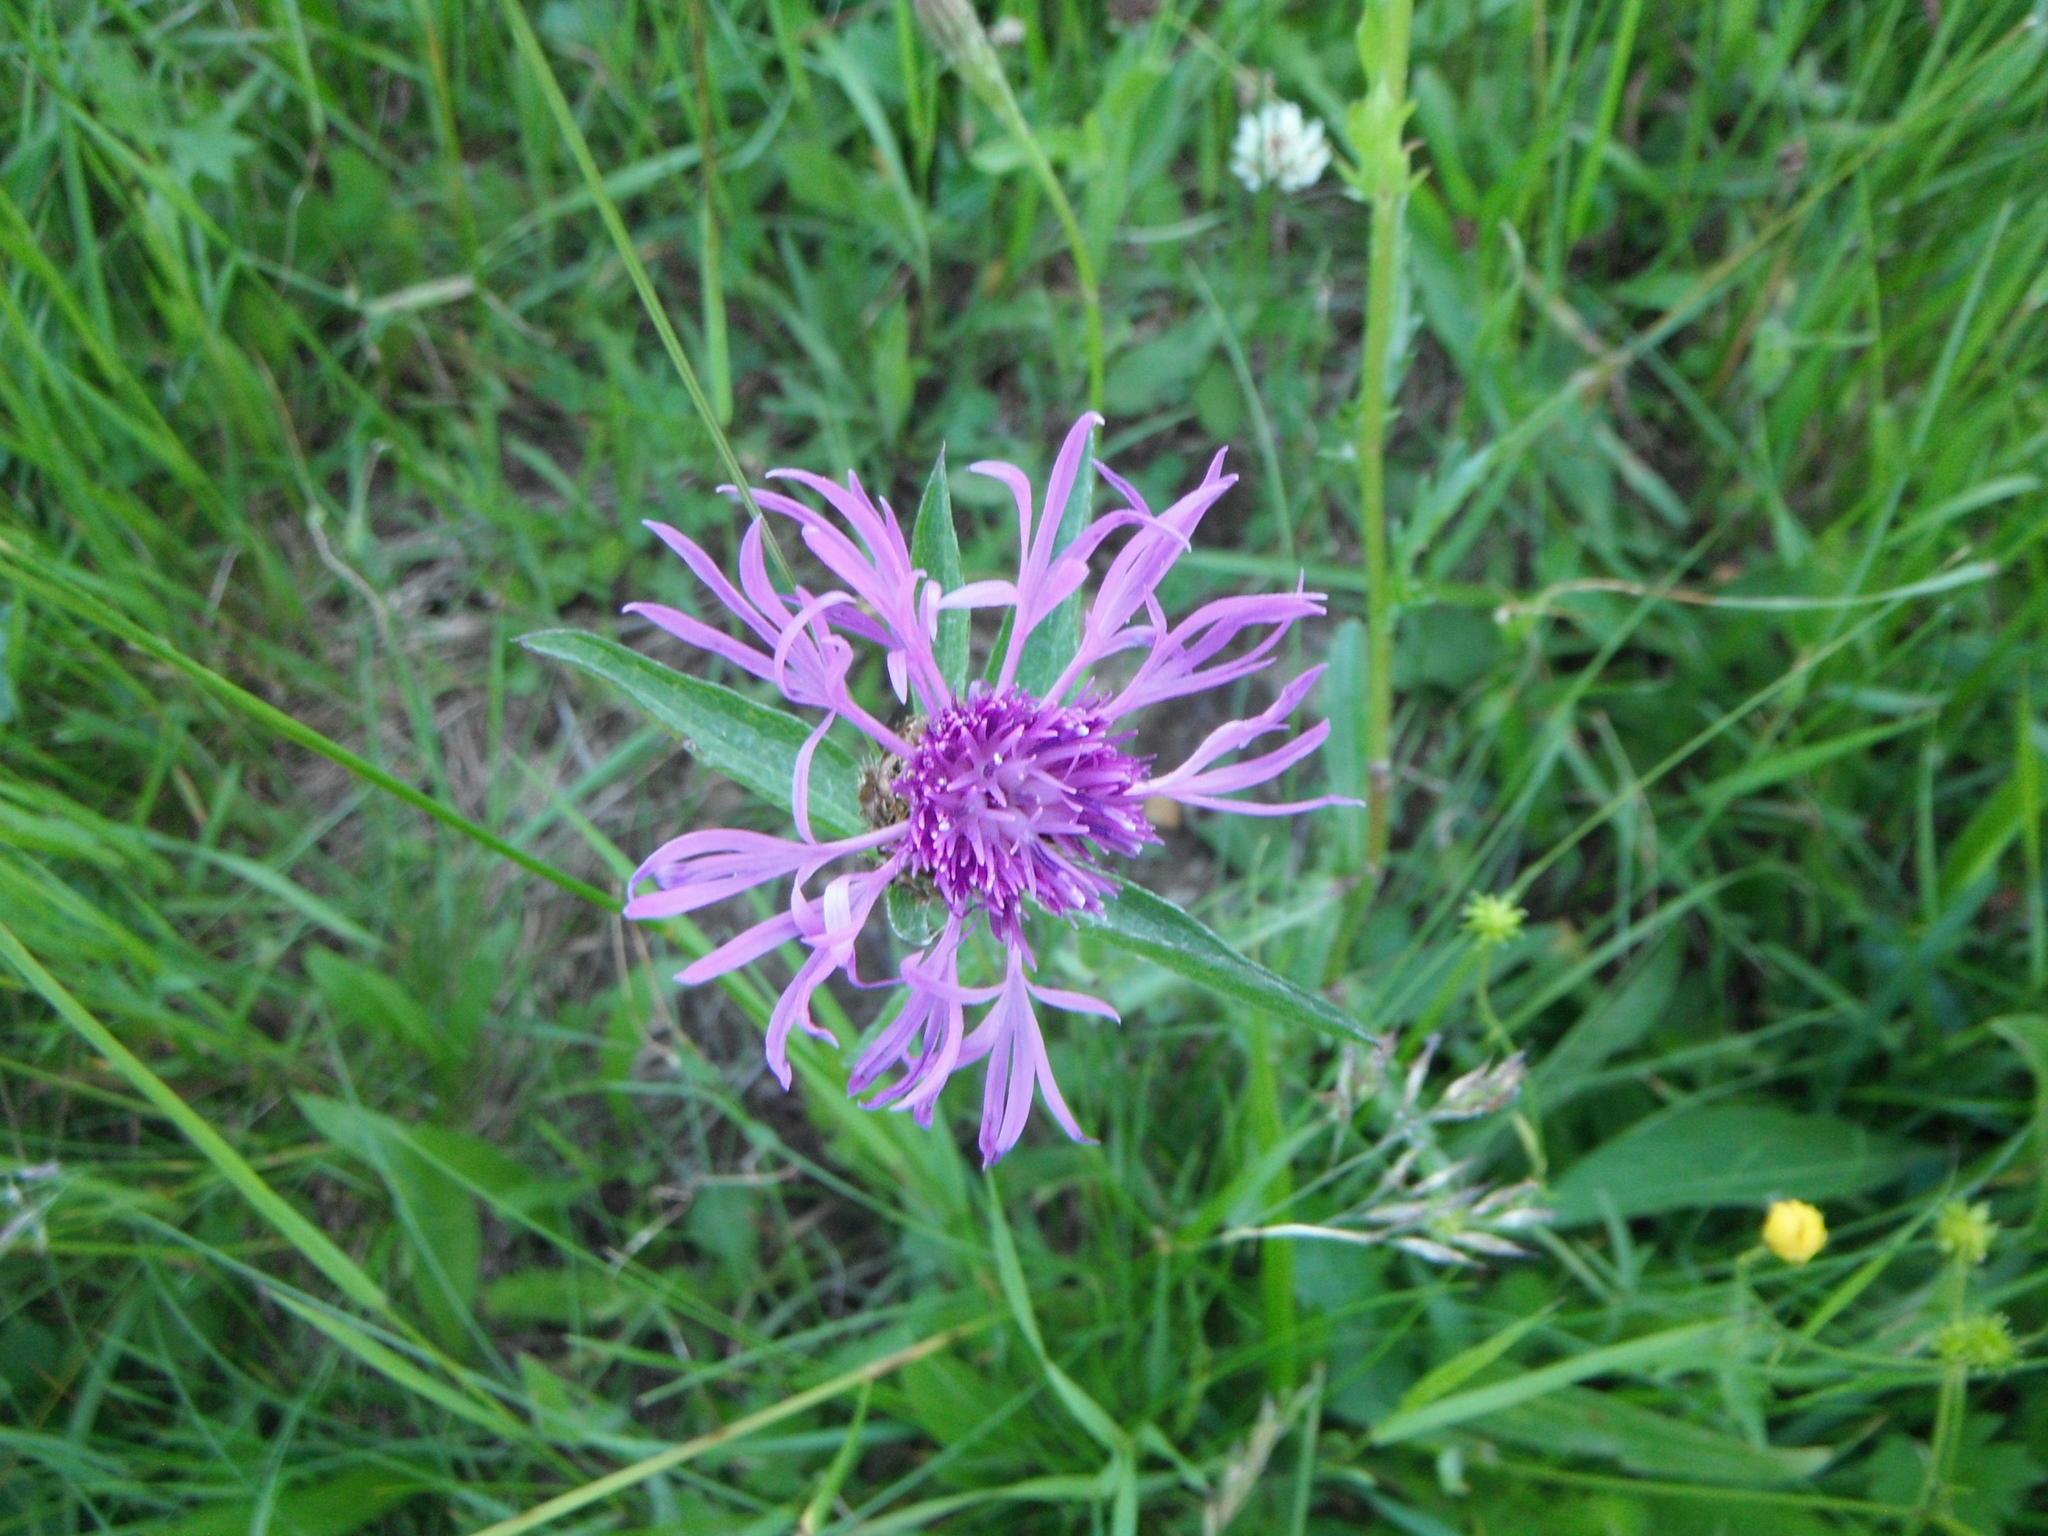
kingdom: Plantae
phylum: Tracheophyta
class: Magnoliopsida
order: Asterales
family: Asteraceae
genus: Centaurea
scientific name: Centaurea jacea
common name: Brown knapweed
